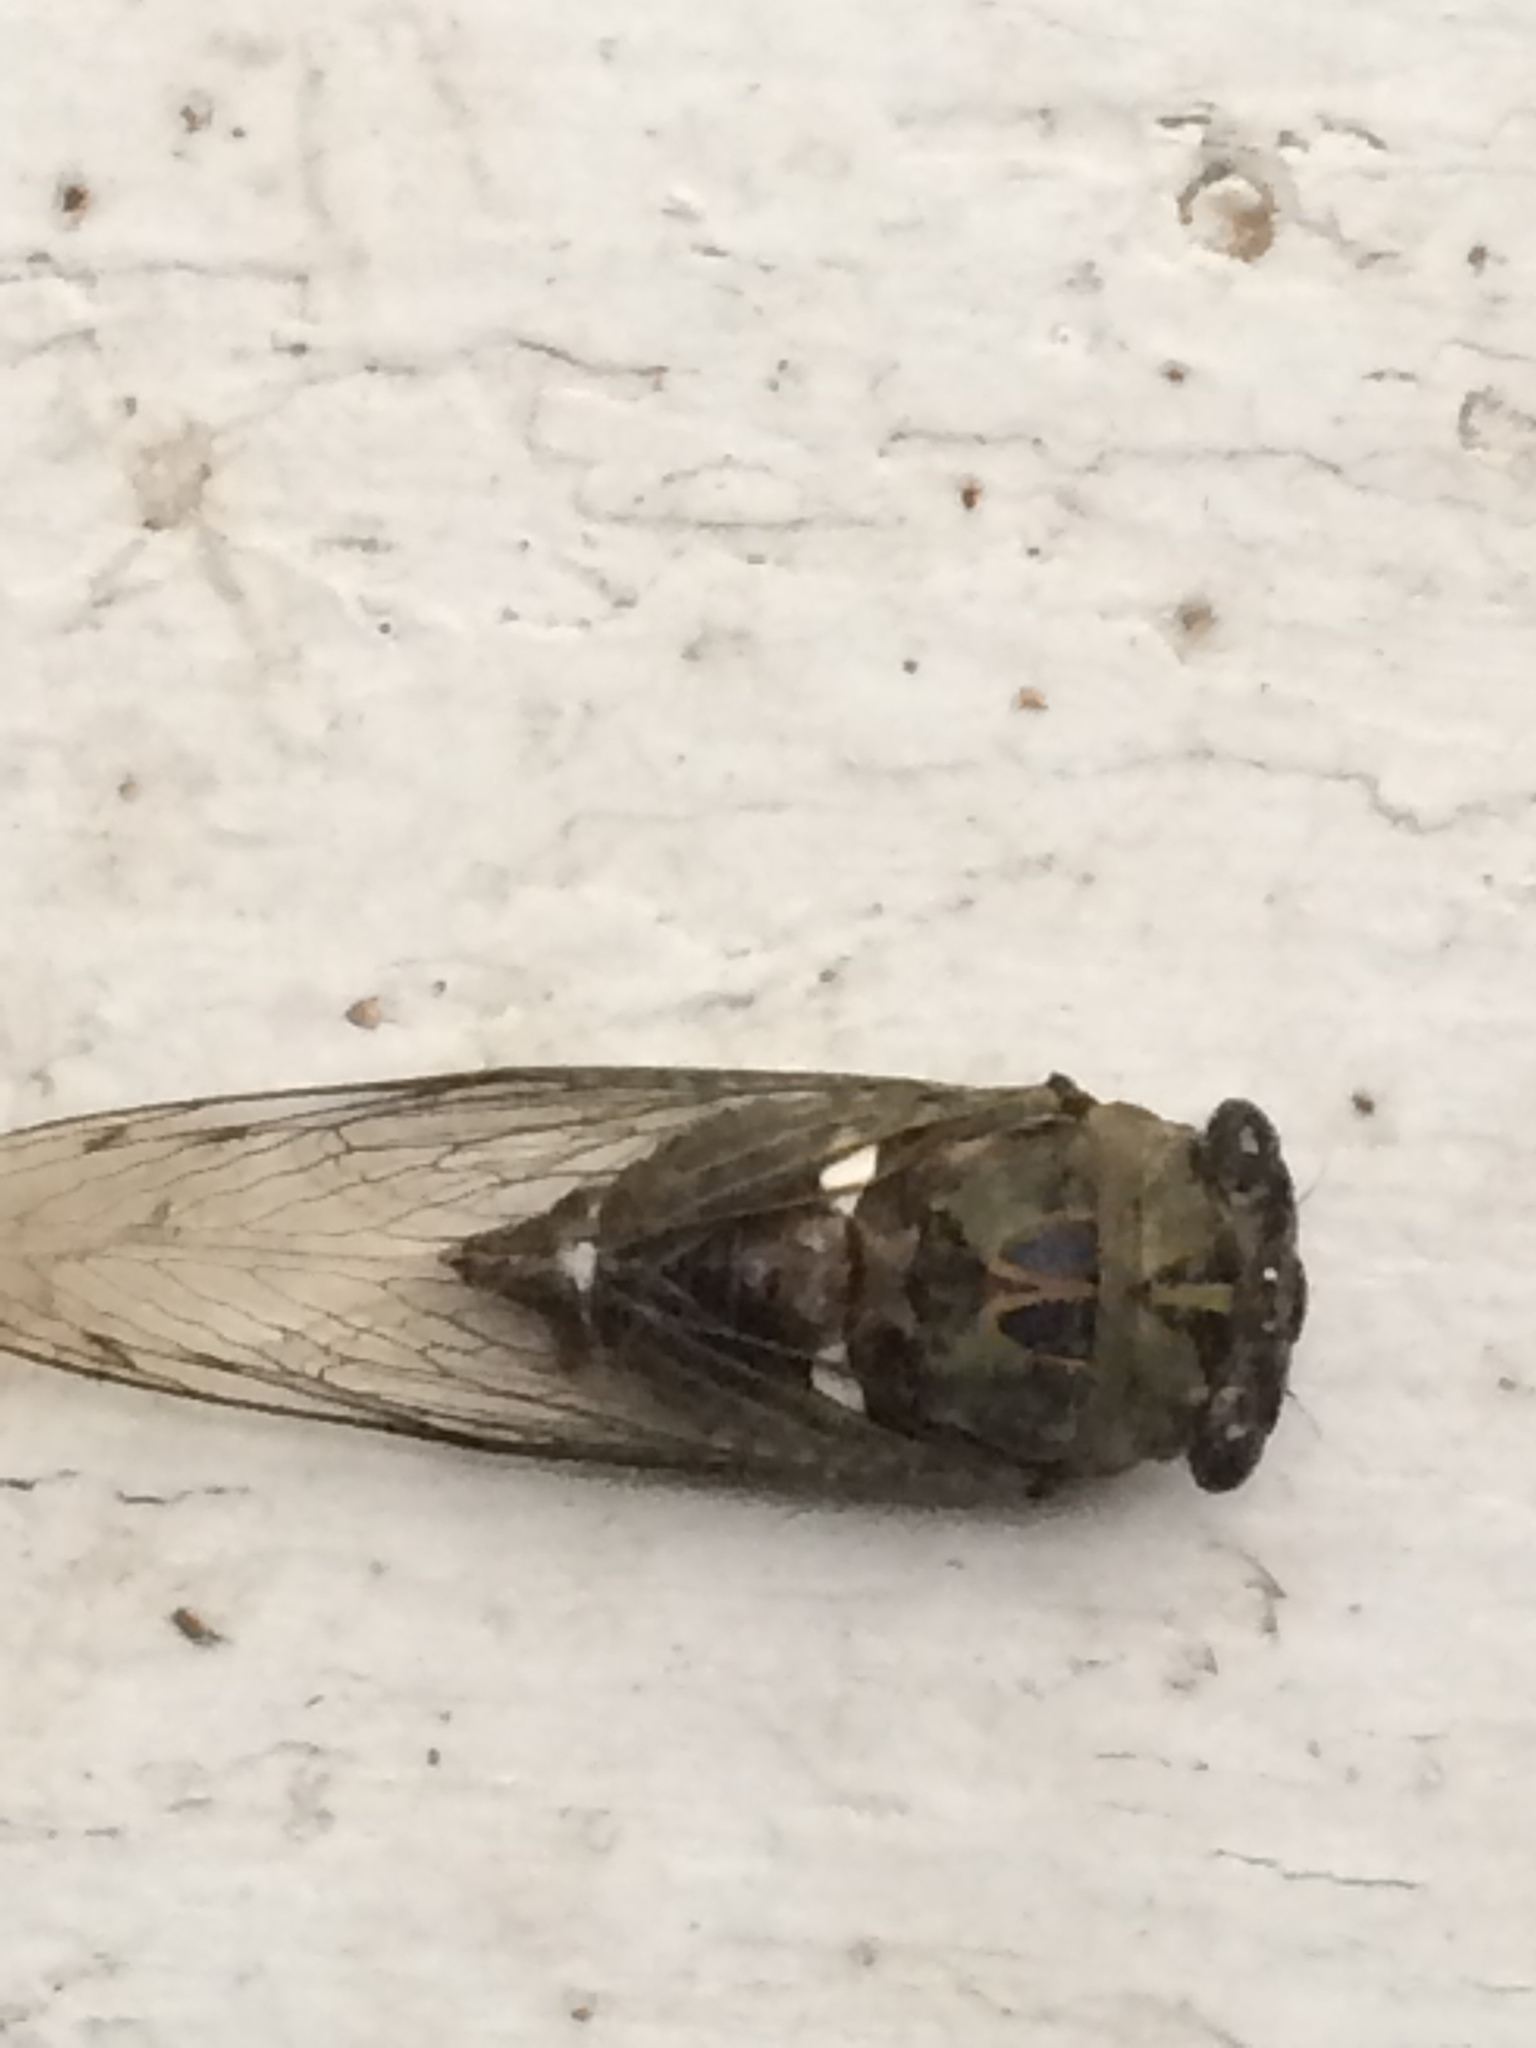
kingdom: Animalia
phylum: Arthropoda
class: Insecta
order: Hemiptera
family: Cicadidae
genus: Neotibicen
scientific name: Neotibicen pruinosus
